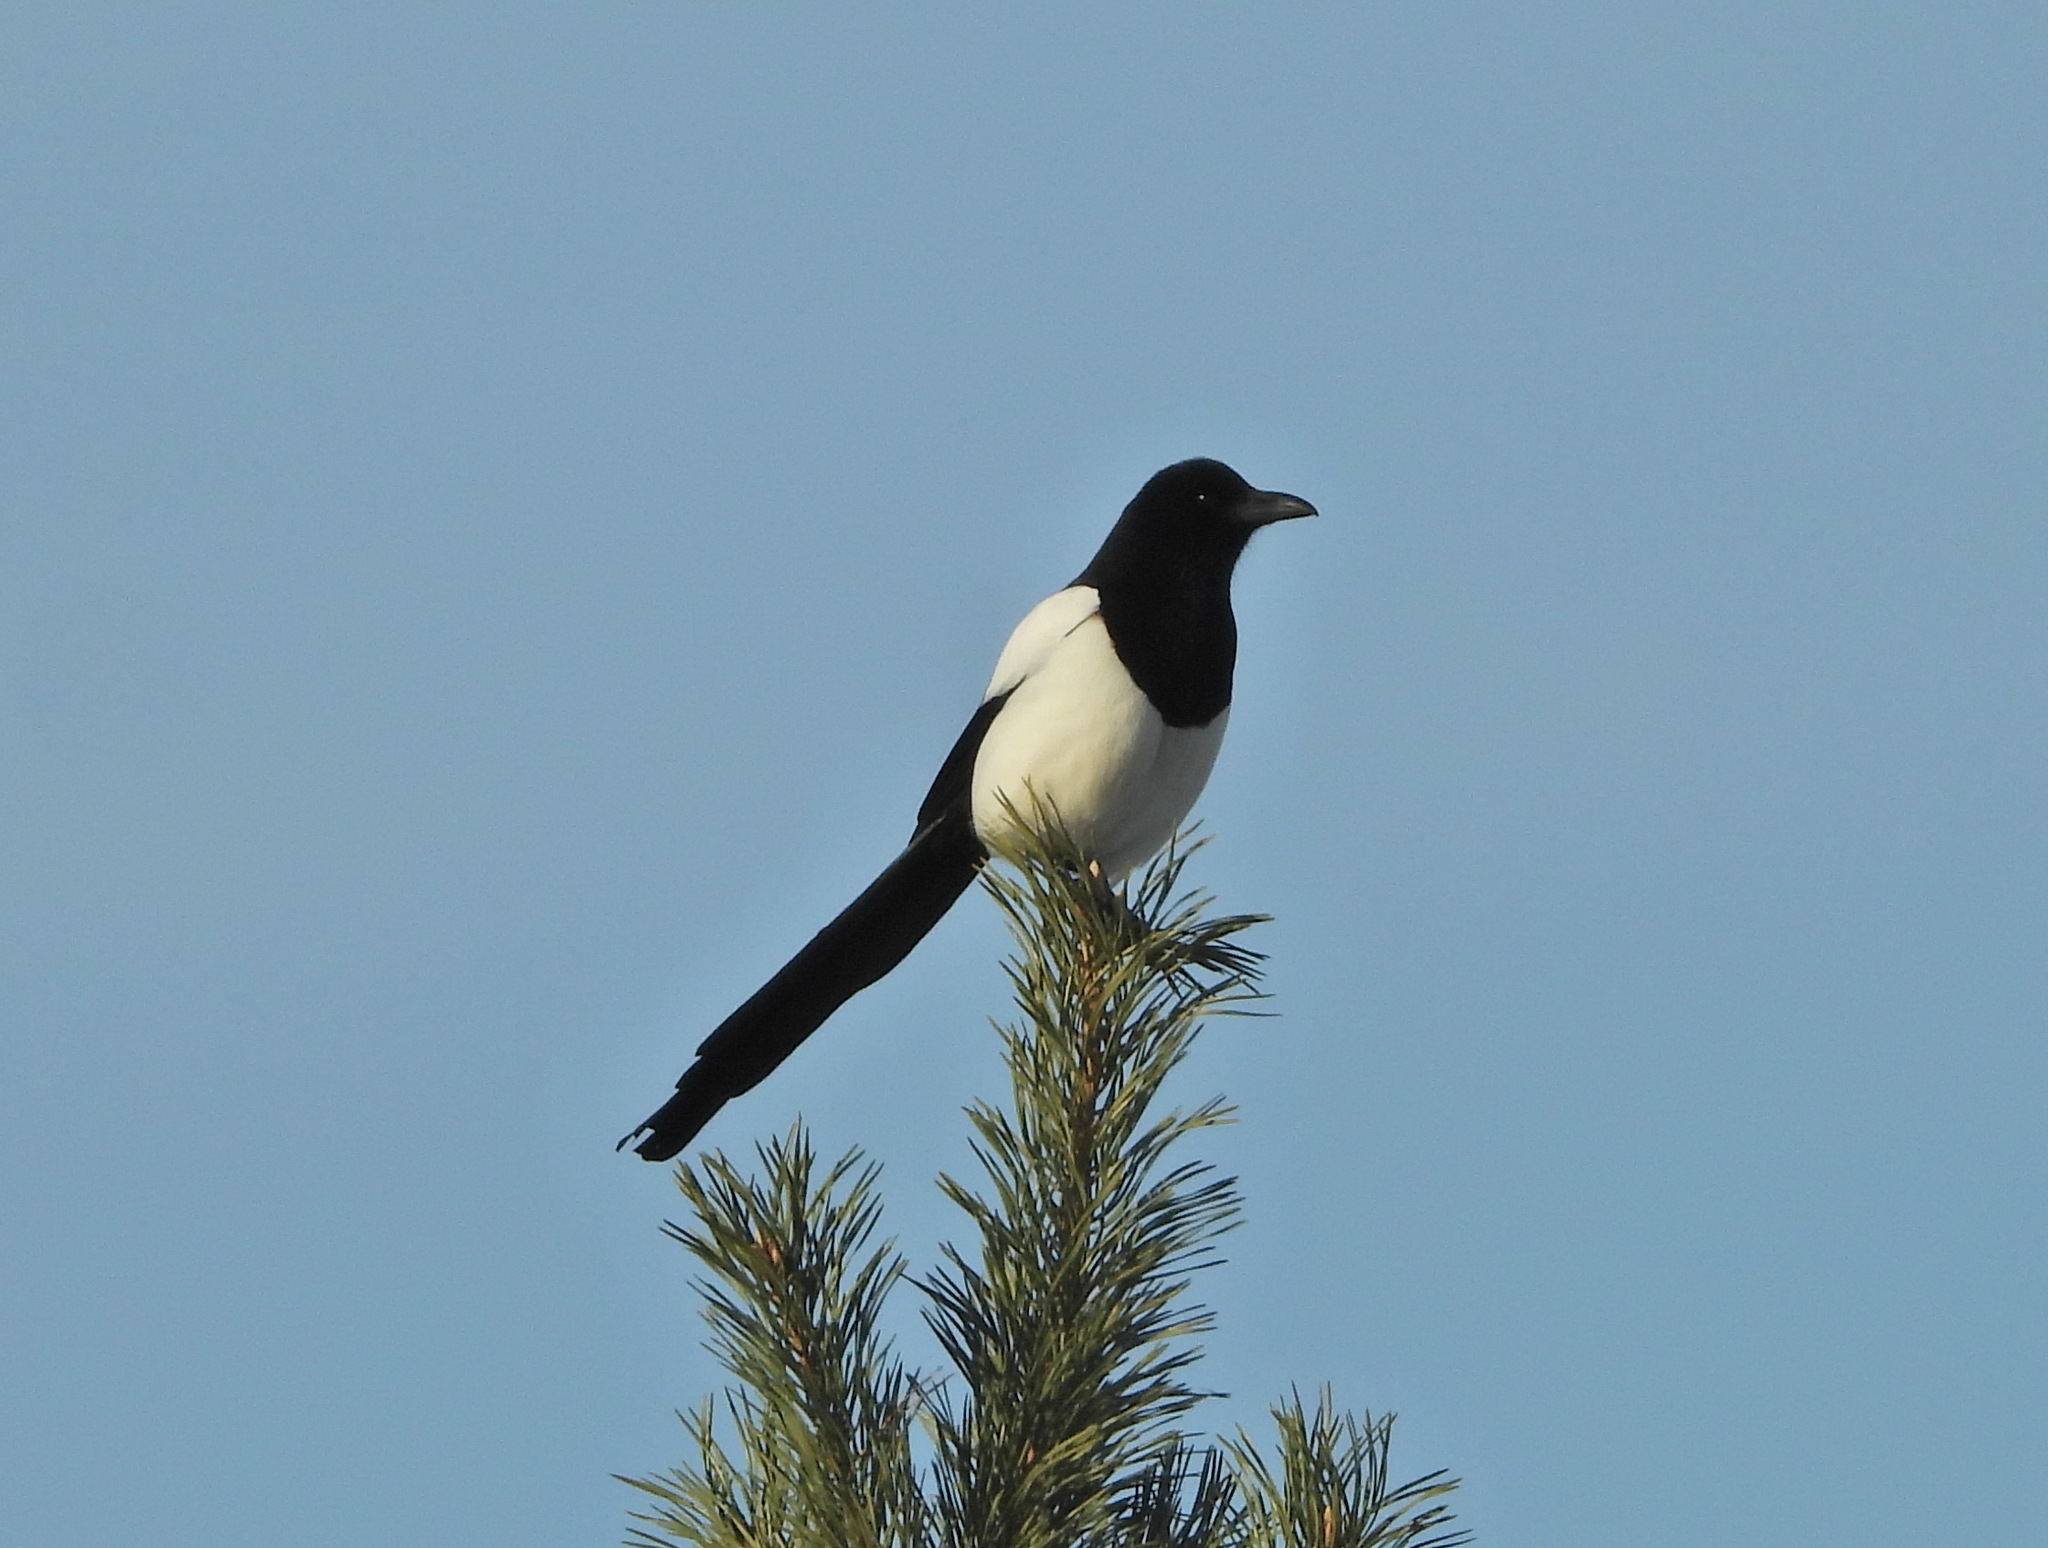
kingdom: Animalia
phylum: Chordata
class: Aves
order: Passeriformes
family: Corvidae
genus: Pica
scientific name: Pica pica
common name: Eurasian magpie
